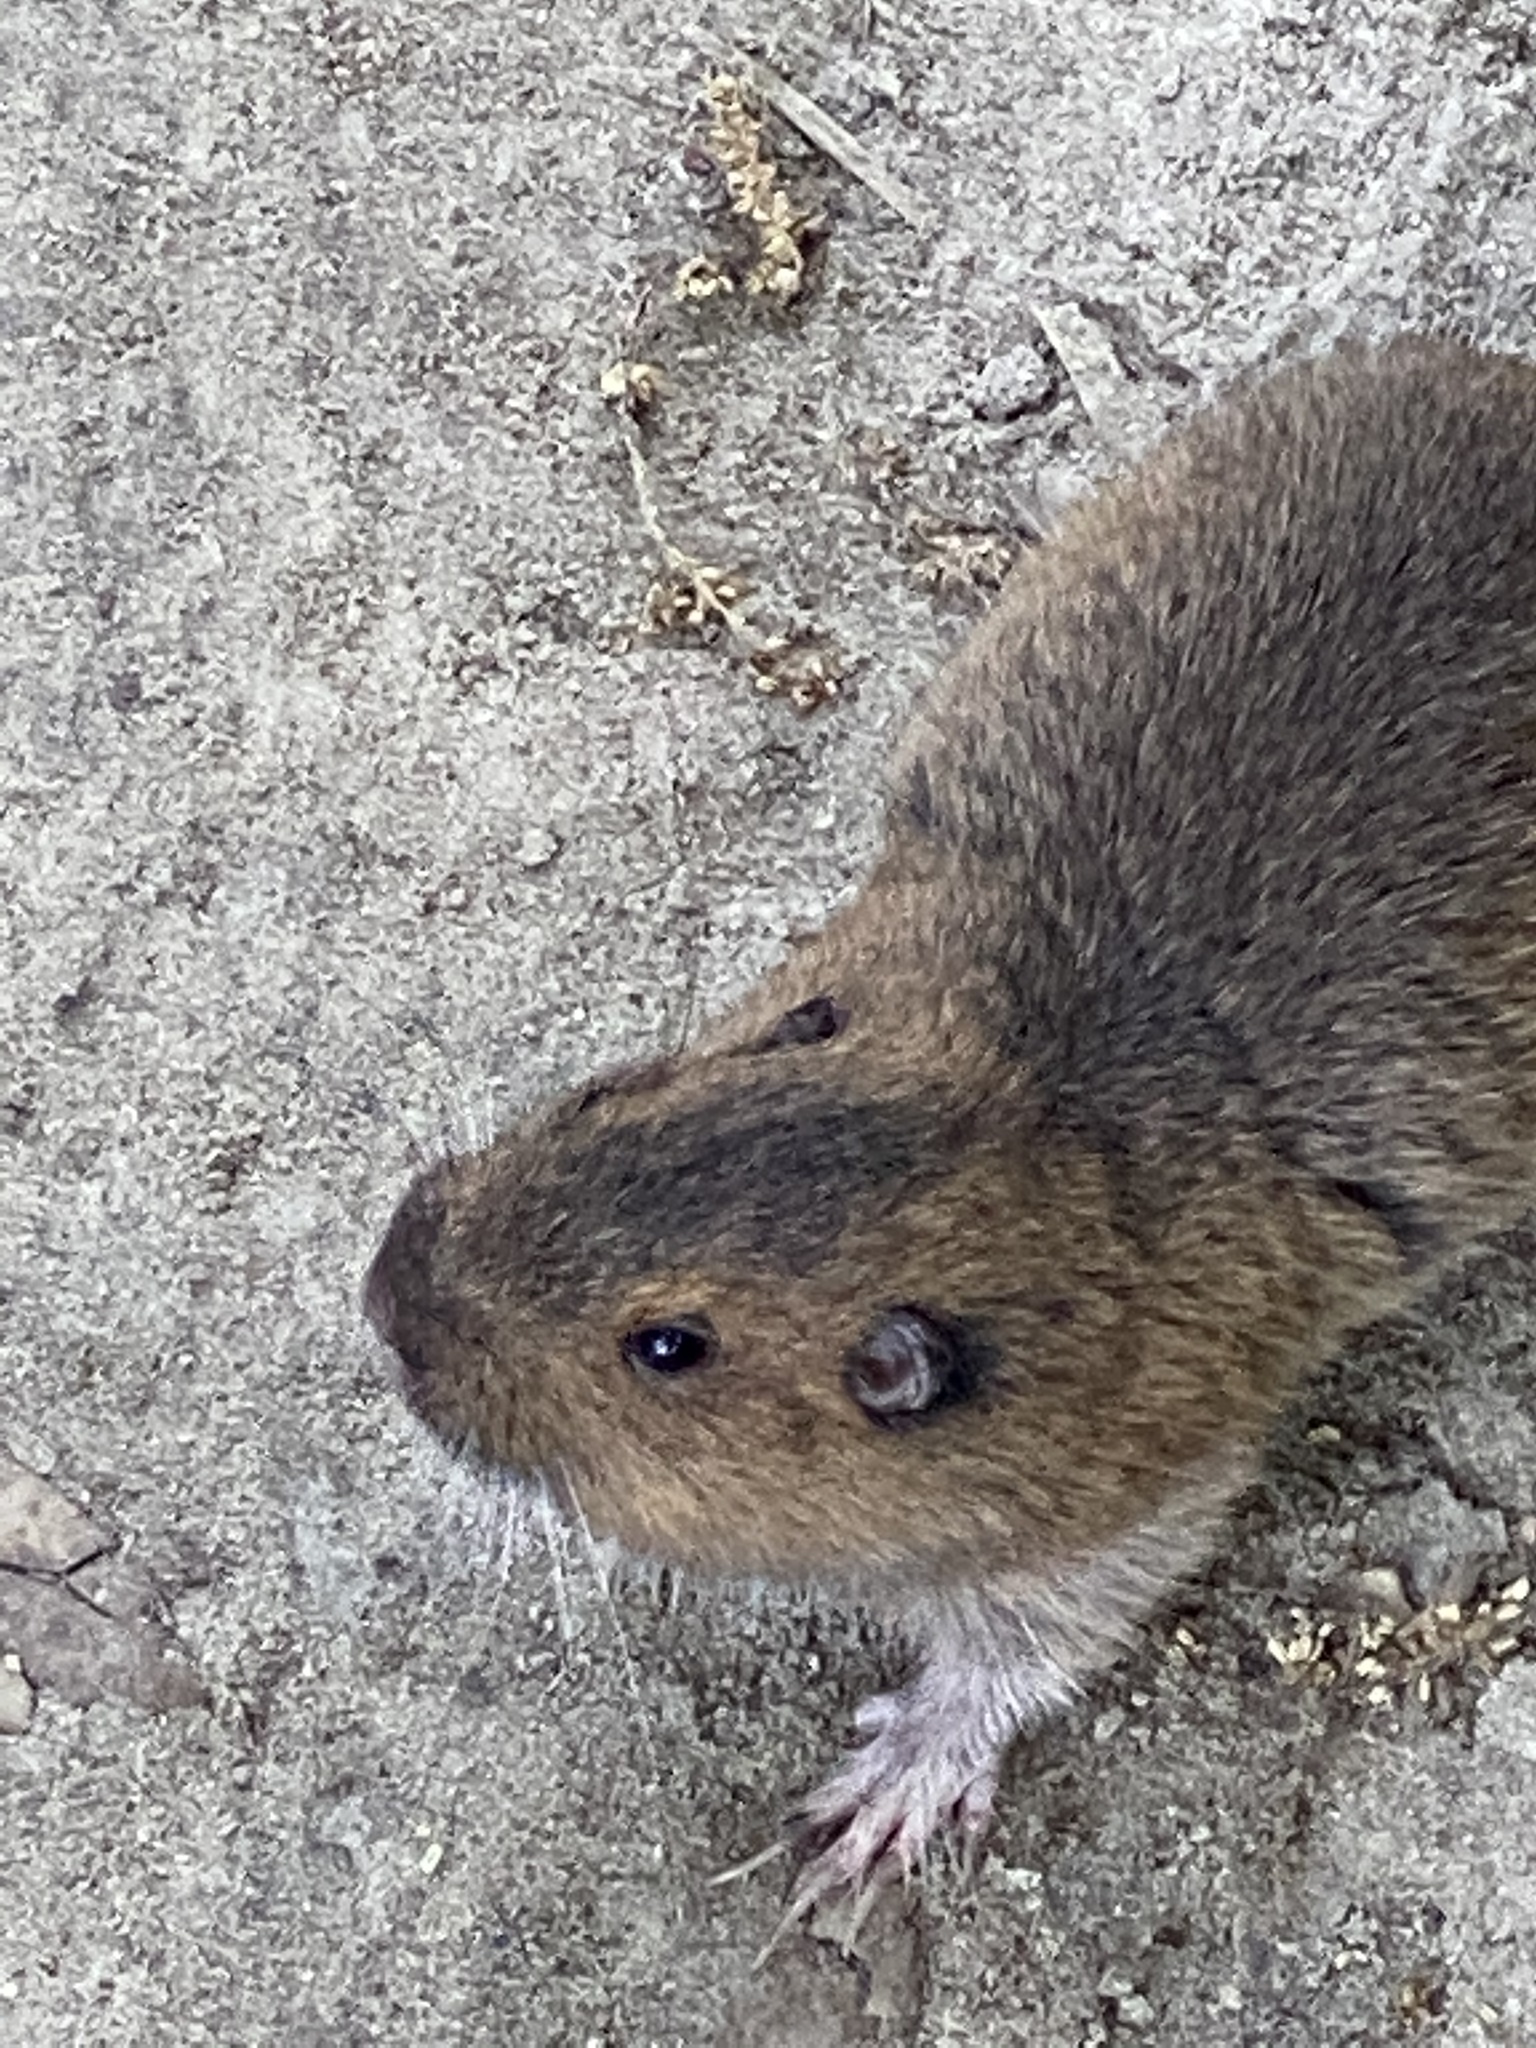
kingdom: Animalia
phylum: Chordata
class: Mammalia
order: Rodentia
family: Geomyidae
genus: Thomomys
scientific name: Thomomys bottae
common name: Botta's pocket gopher
